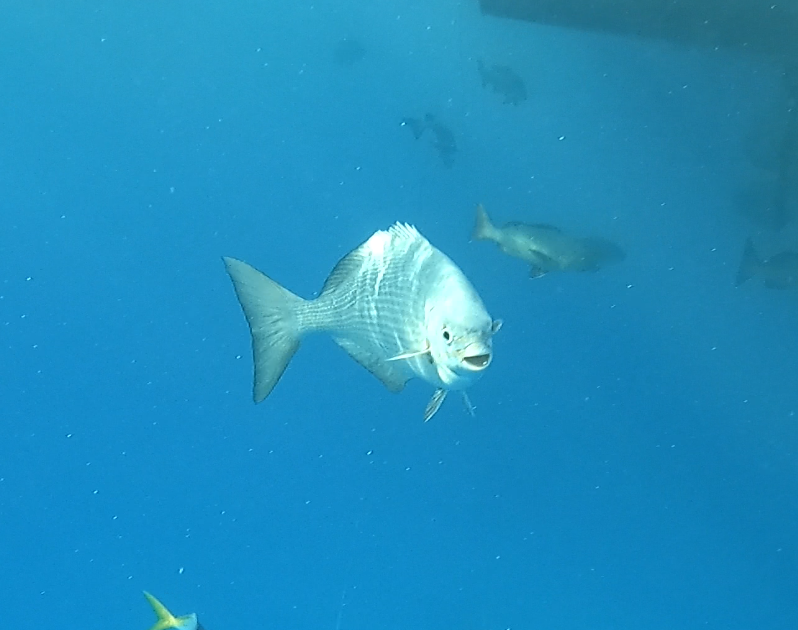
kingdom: Animalia
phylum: Chordata
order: Perciformes
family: Kyphosidae
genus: Kyphosus
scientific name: Kyphosus vaigiensis
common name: Brassy chub
